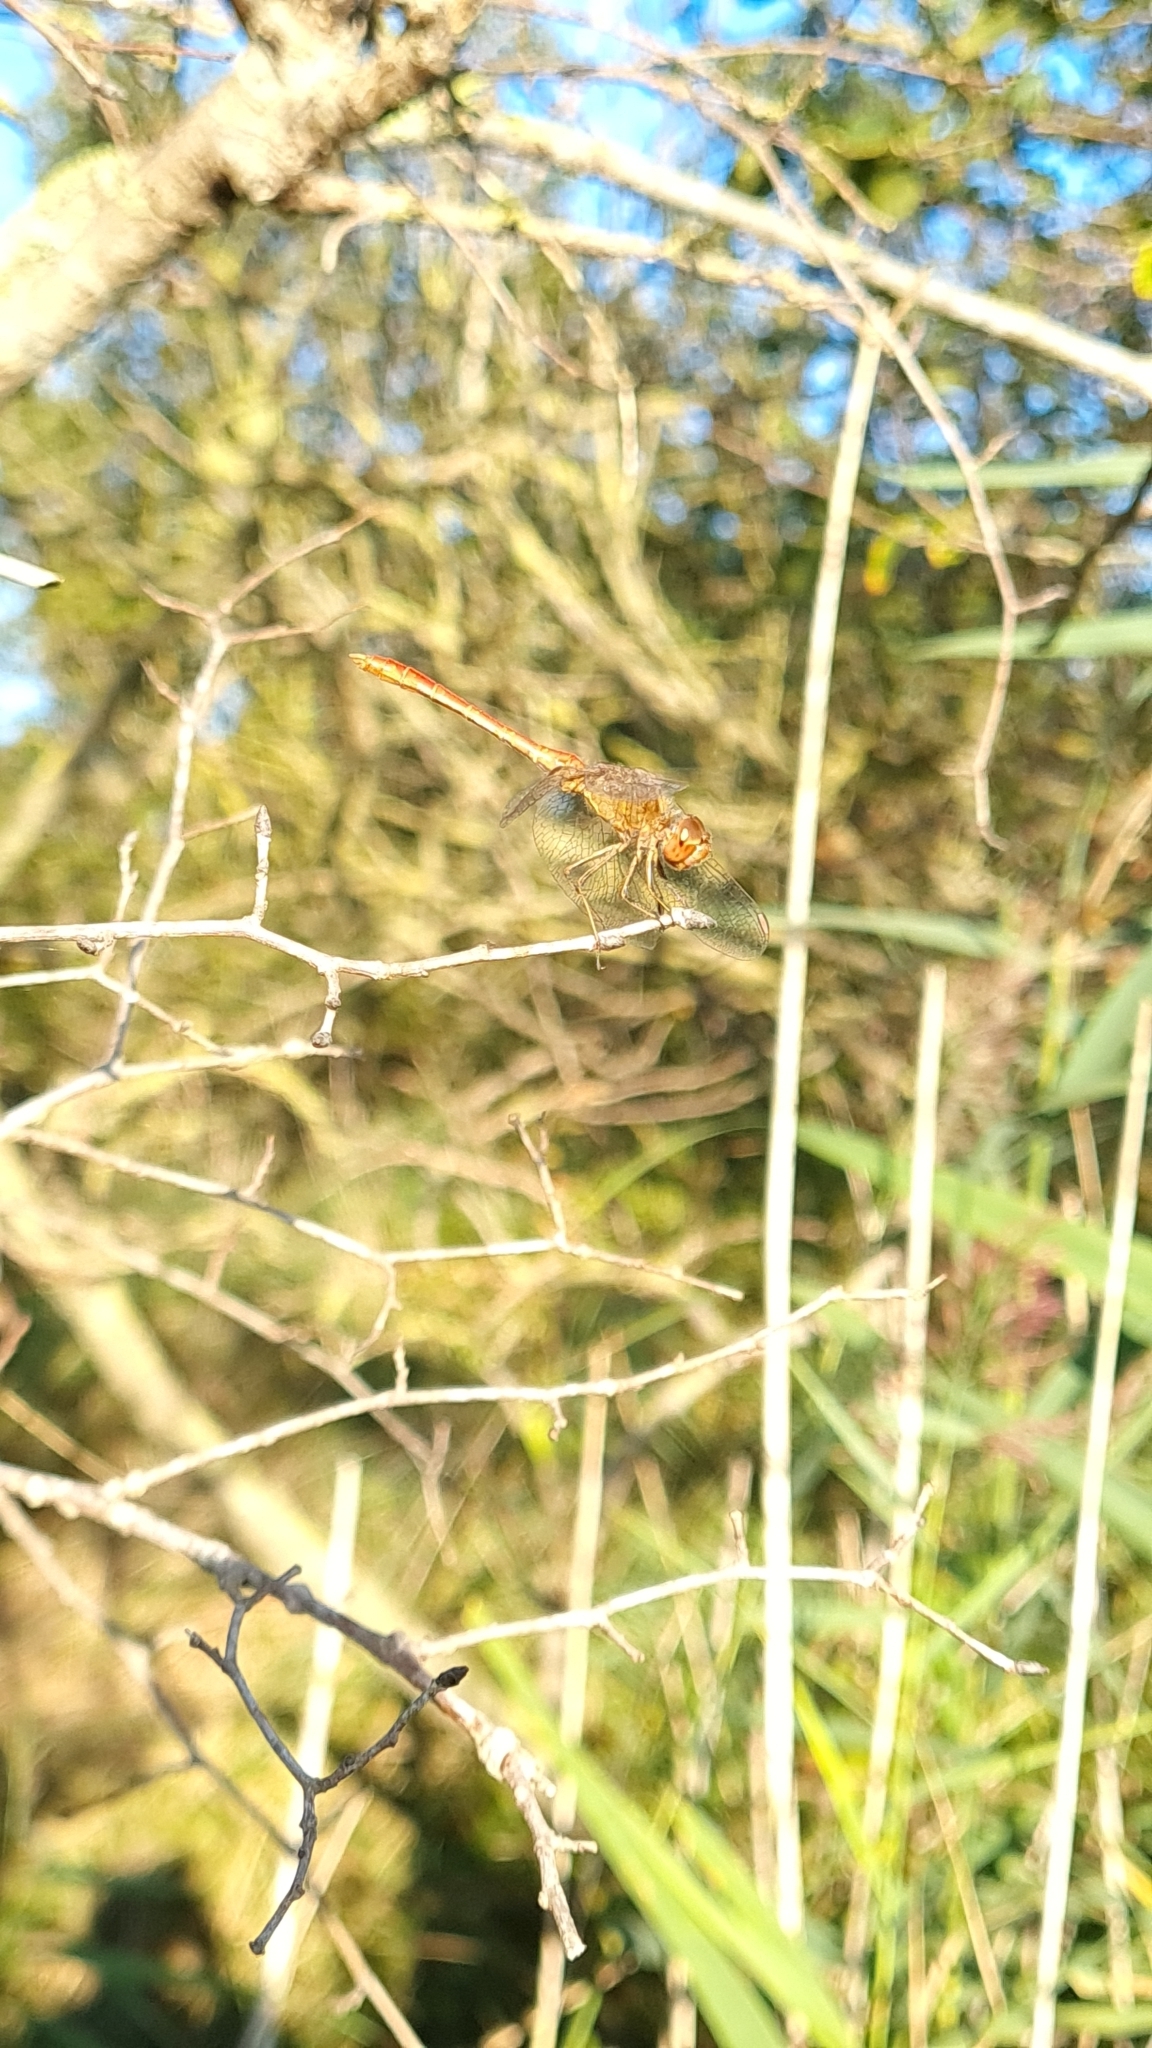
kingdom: Animalia
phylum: Arthropoda
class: Insecta
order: Odonata
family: Libellulidae
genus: Sympetrum
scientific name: Sympetrum meridionale
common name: Southern darter
